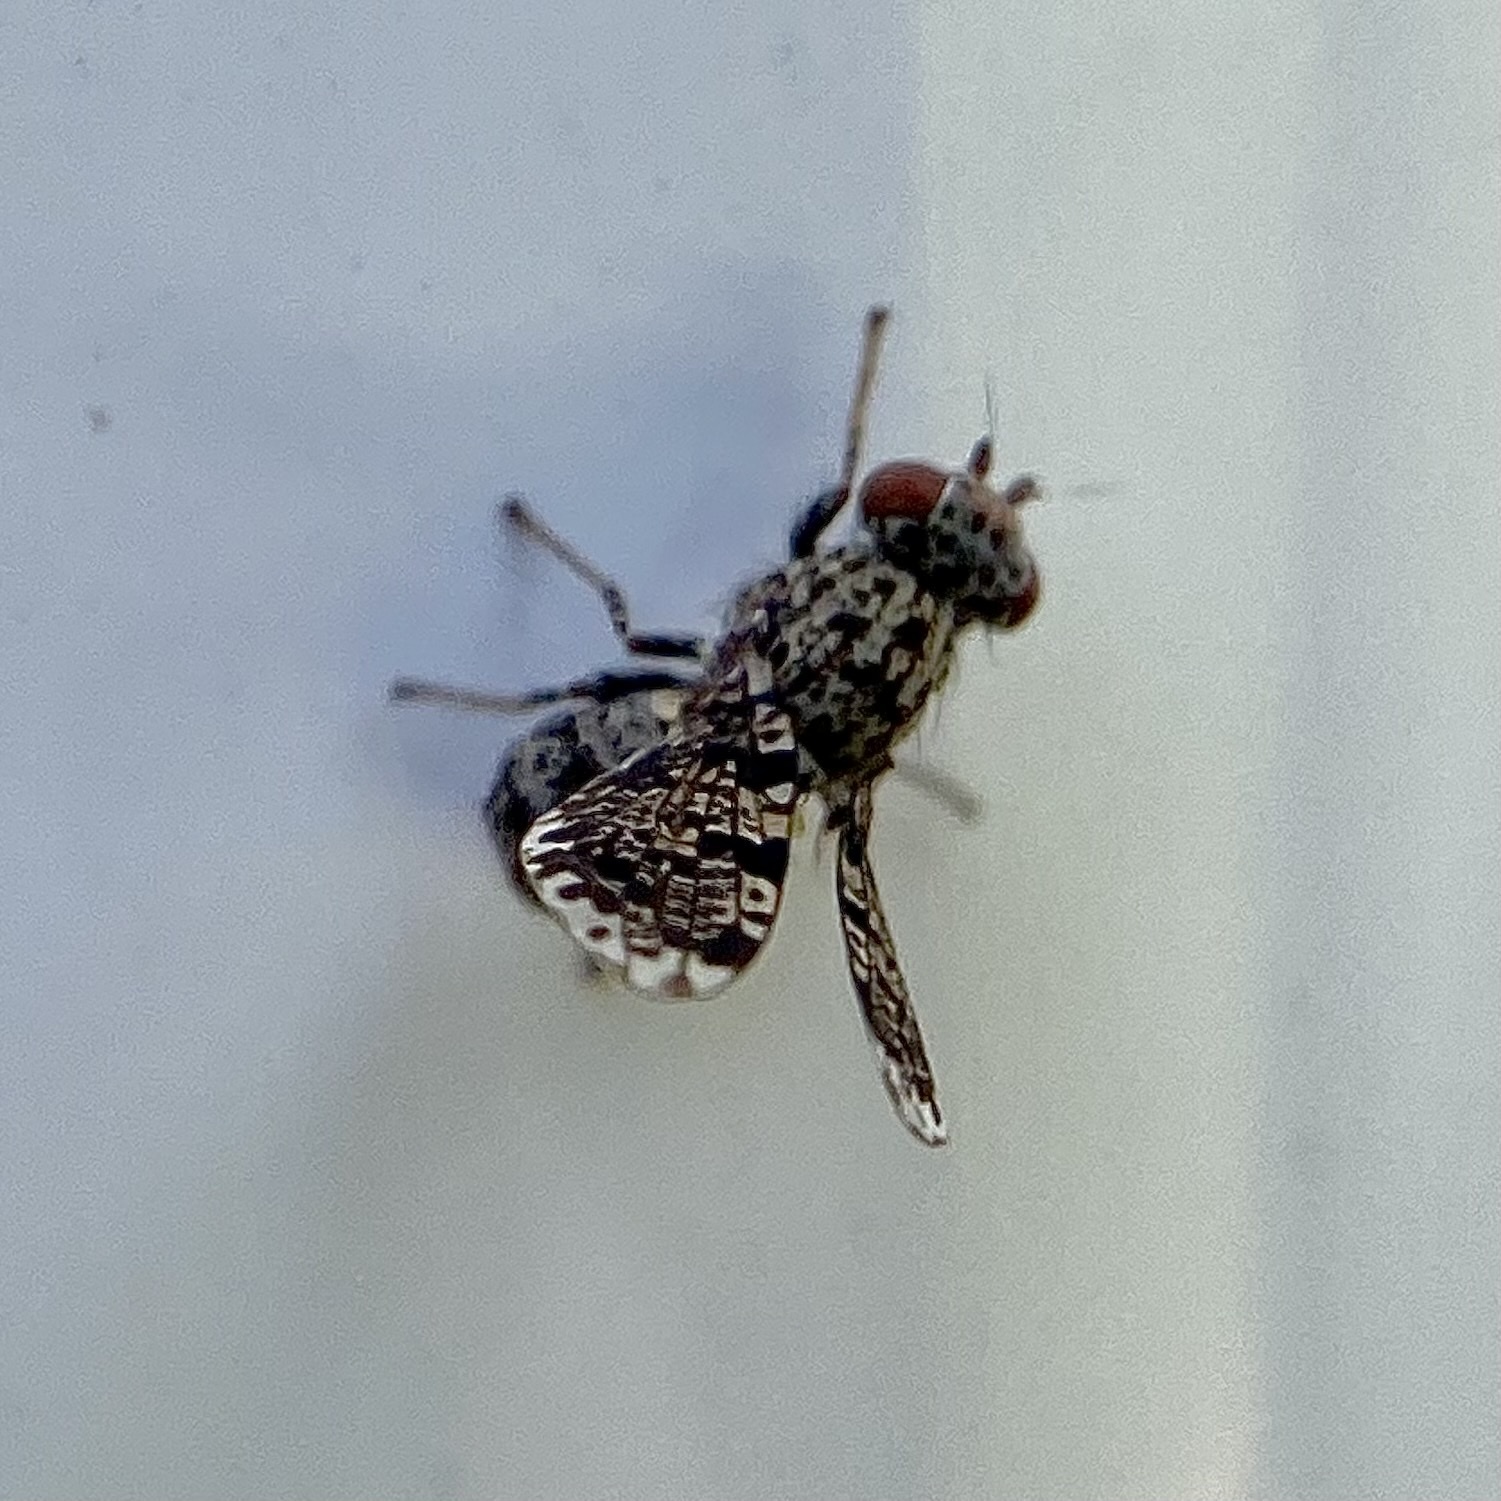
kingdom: Animalia
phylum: Arthropoda
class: Insecta
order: Diptera
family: Ulidiidae
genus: Callopistromyia
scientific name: Callopistromyia annulipes
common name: Peacock fly
